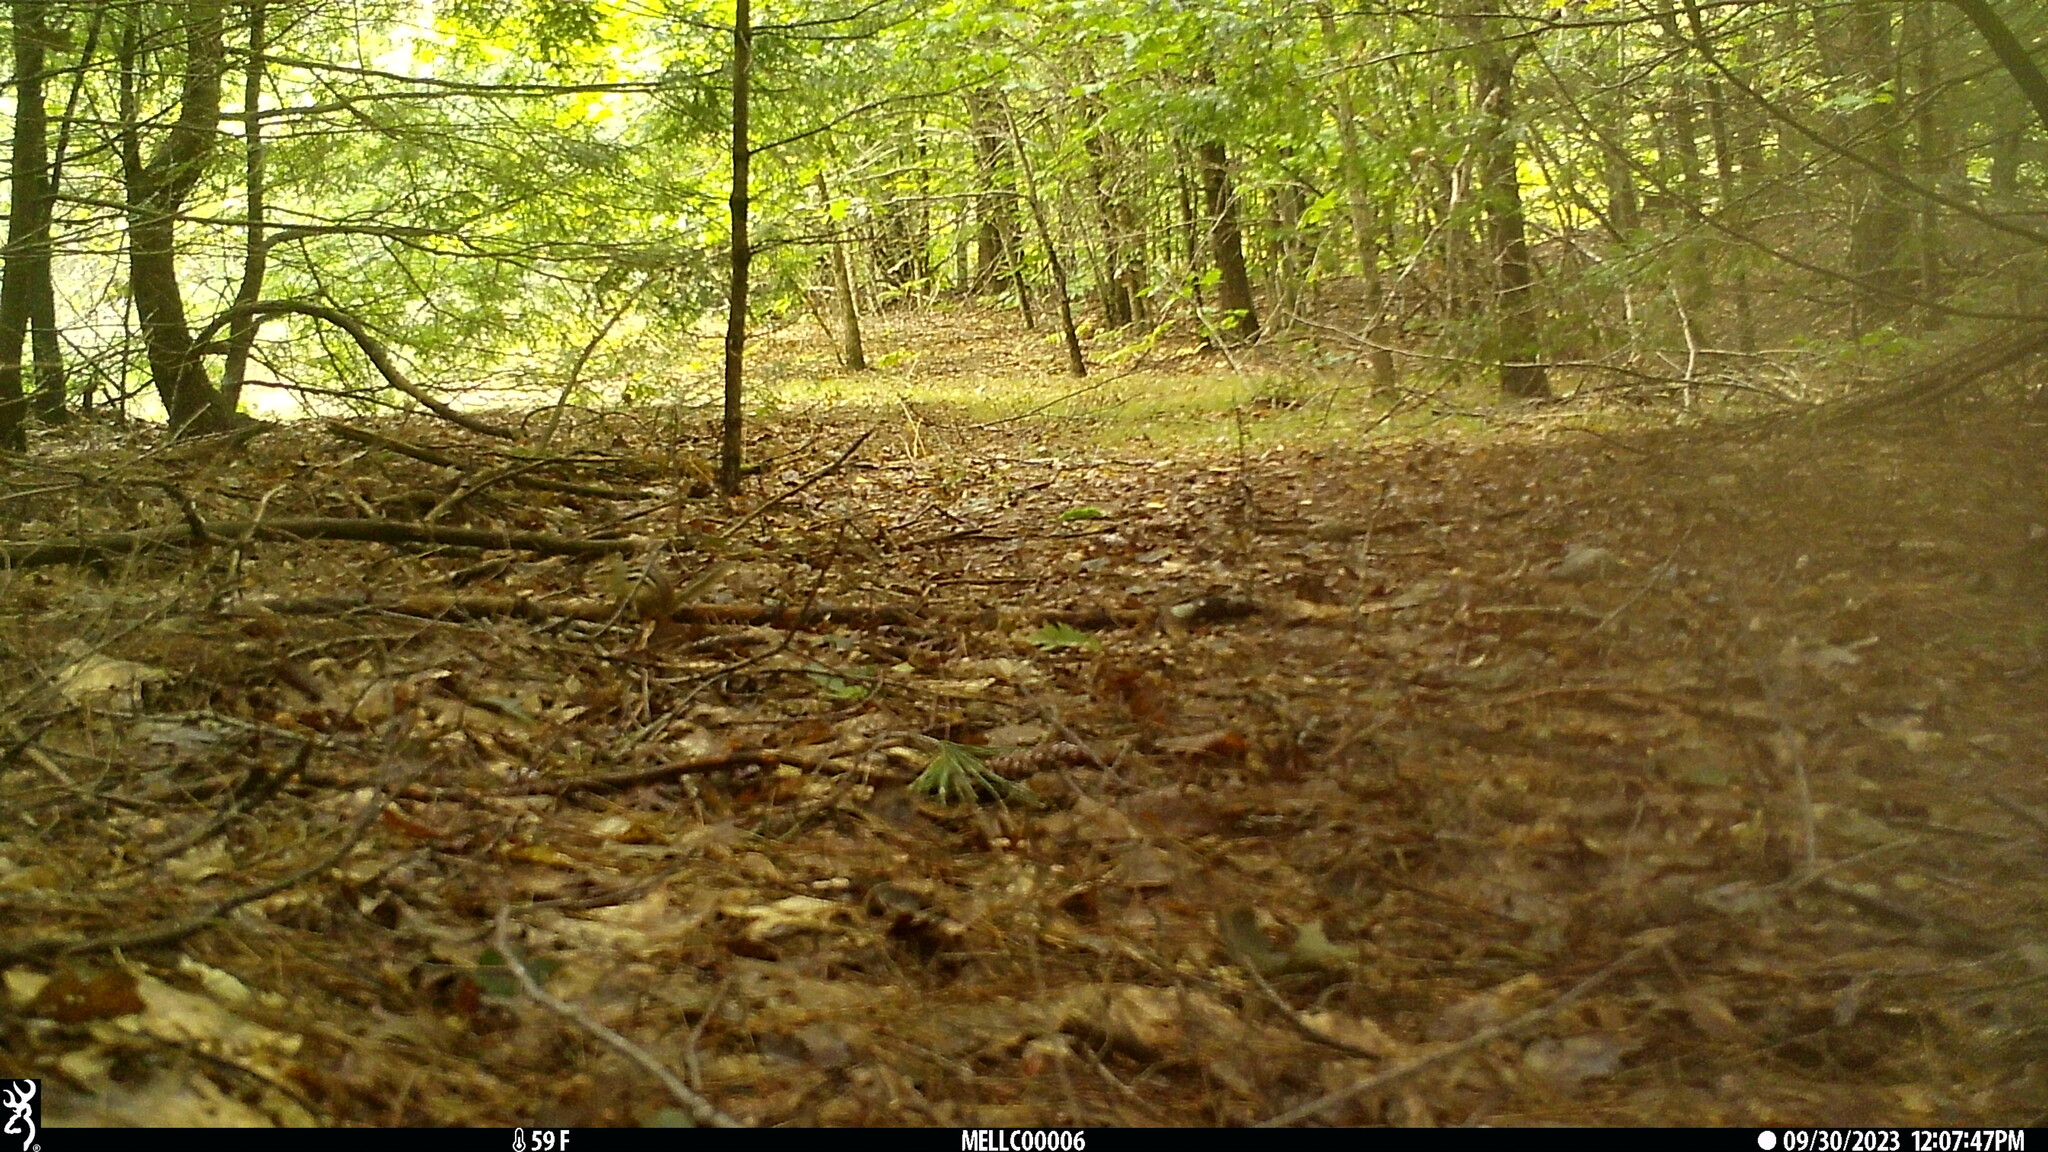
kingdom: Animalia
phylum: Chordata
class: Mammalia
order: Rodentia
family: Sciuridae
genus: Tamias
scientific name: Tamias striatus
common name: Eastern chipmunk
